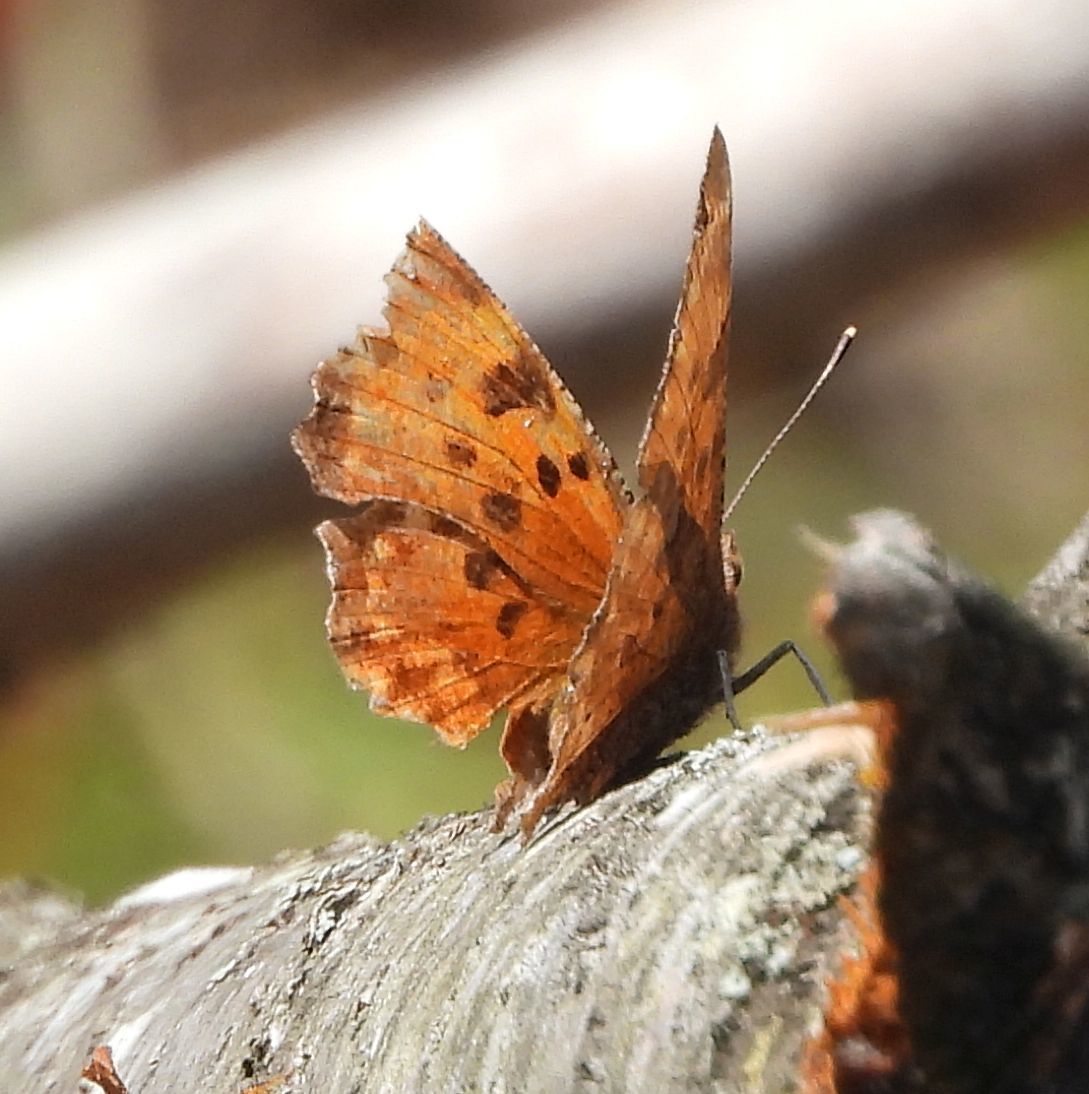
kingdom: Animalia
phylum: Arthropoda
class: Insecta
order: Lepidoptera
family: Nymphalidae
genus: Polygonia
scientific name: Polygonia comma
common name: Eastern comma
